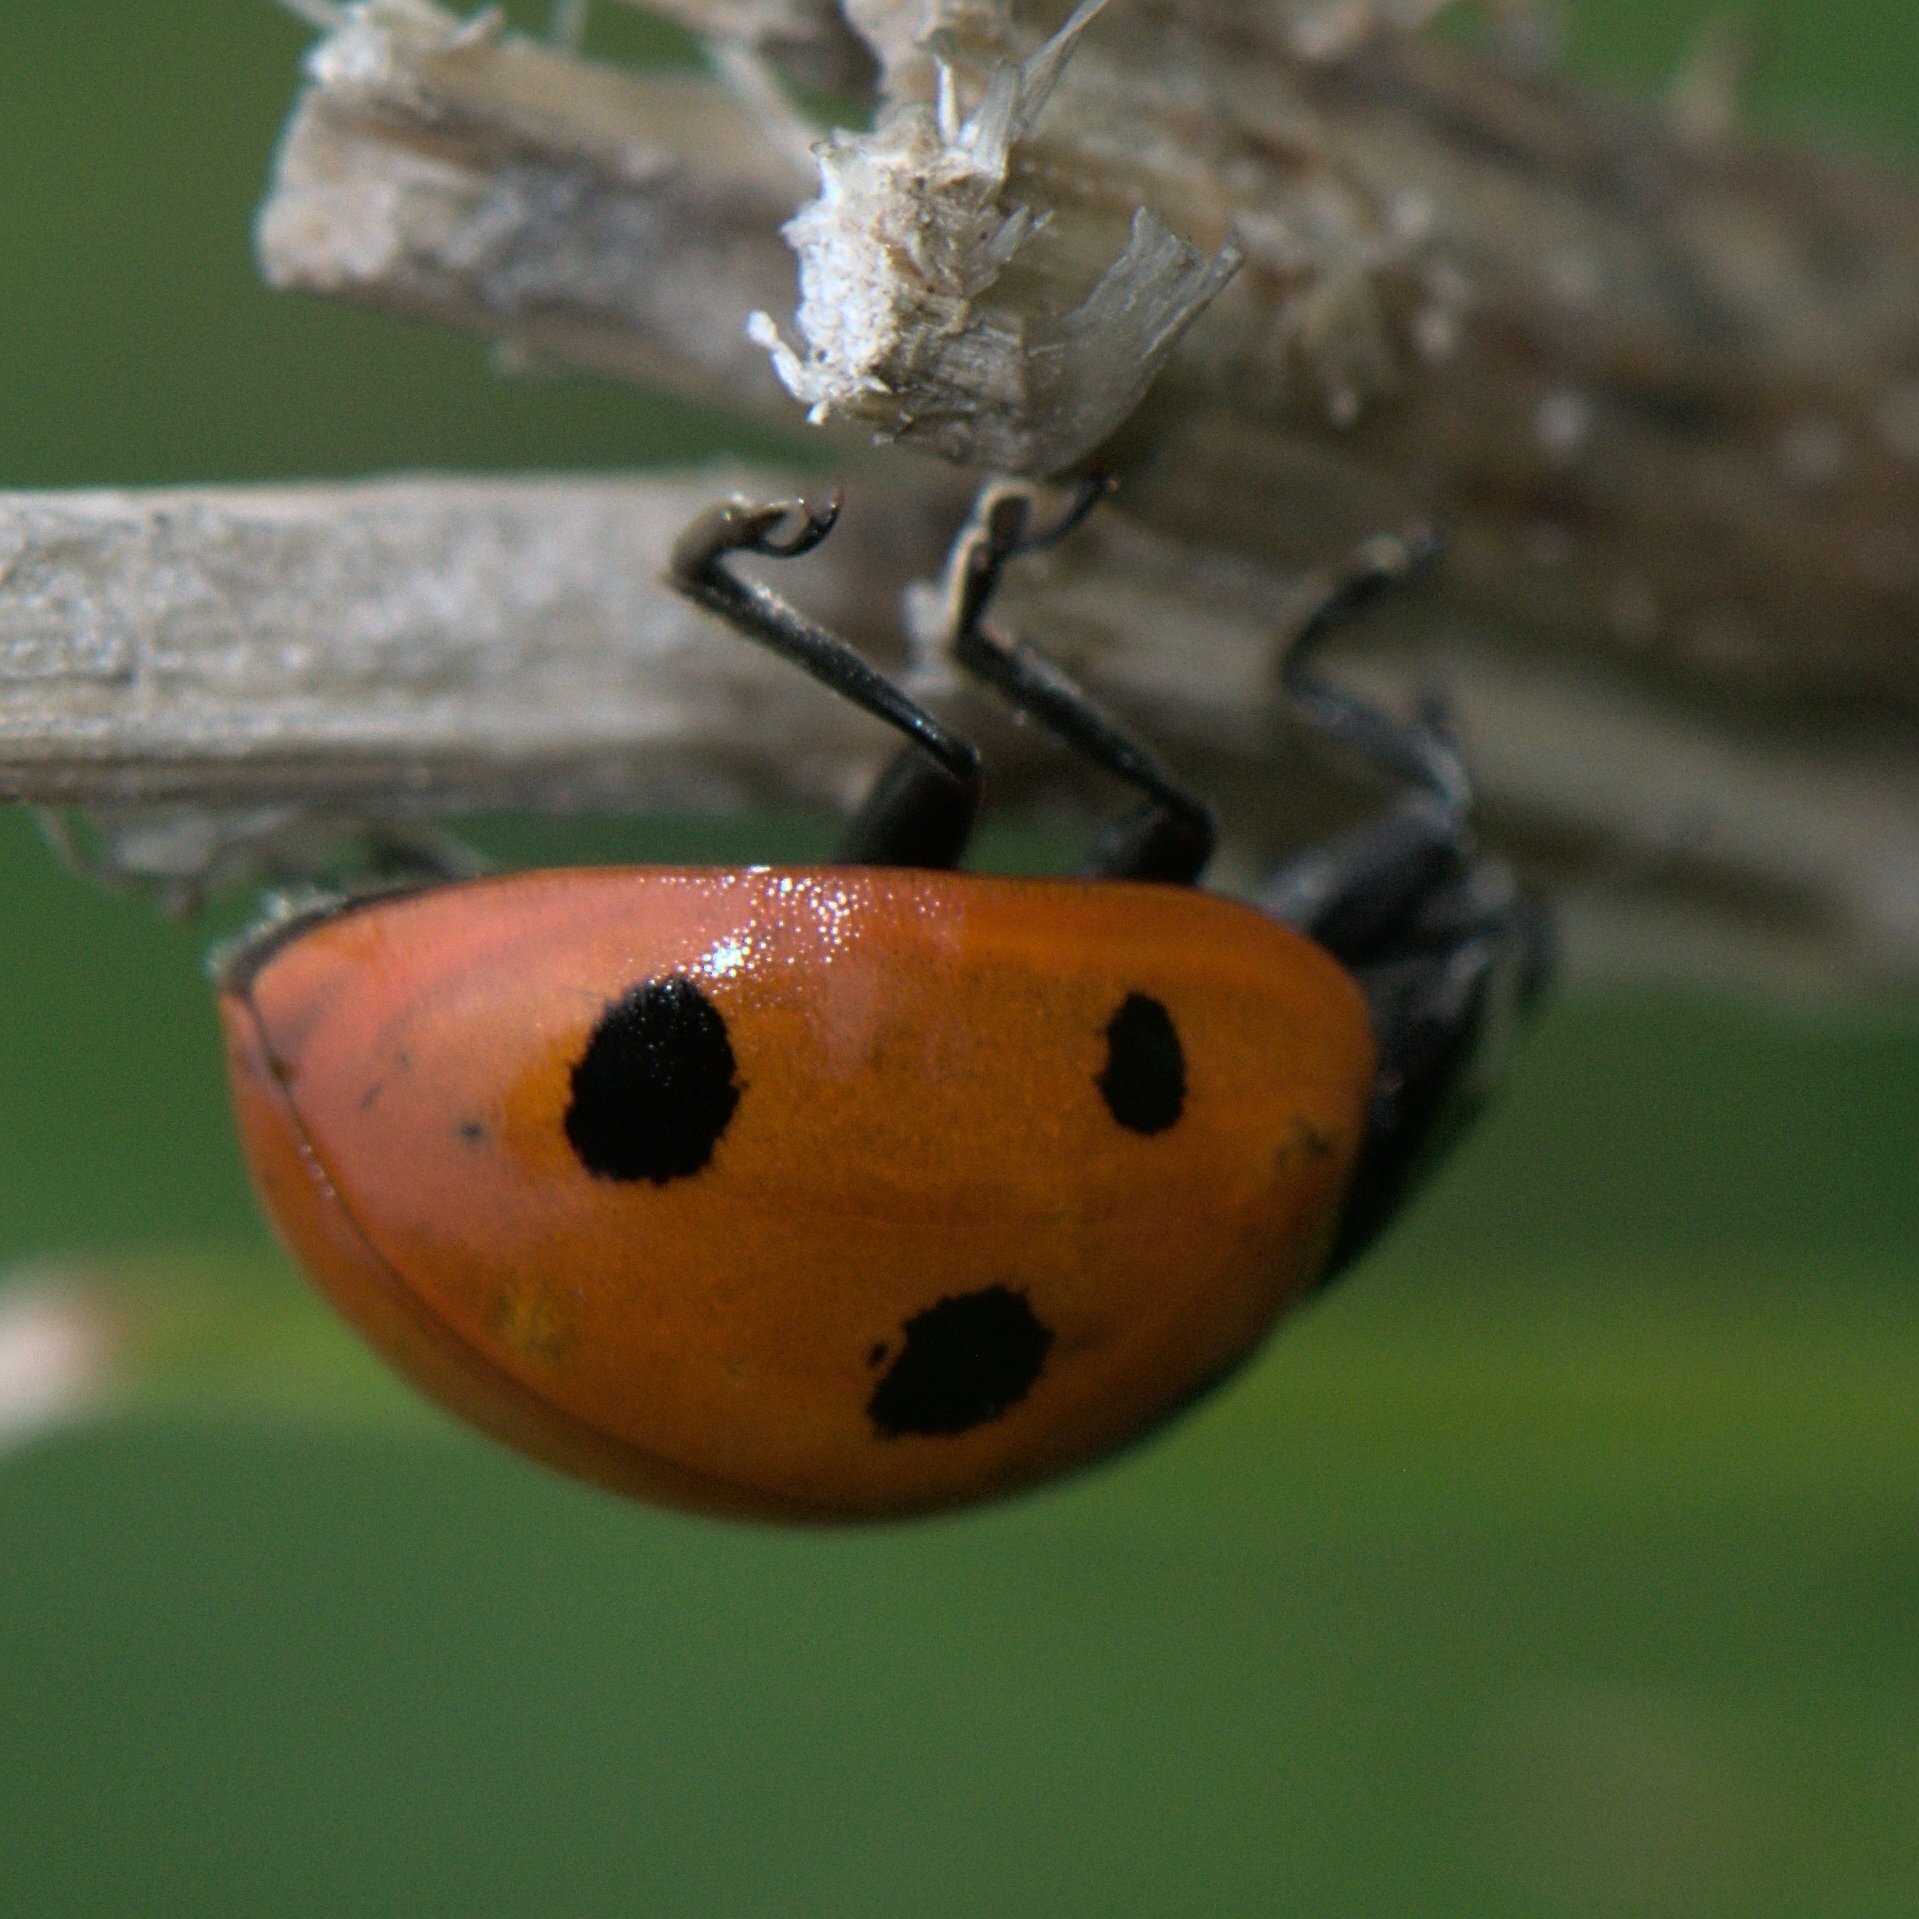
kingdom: Animalia
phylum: Arthropoda
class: Insecta
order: Coleoptera
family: Coccinellidae
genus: Coccinella
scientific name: Coccinella septempunctata
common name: Sevenspotted lady beetle
